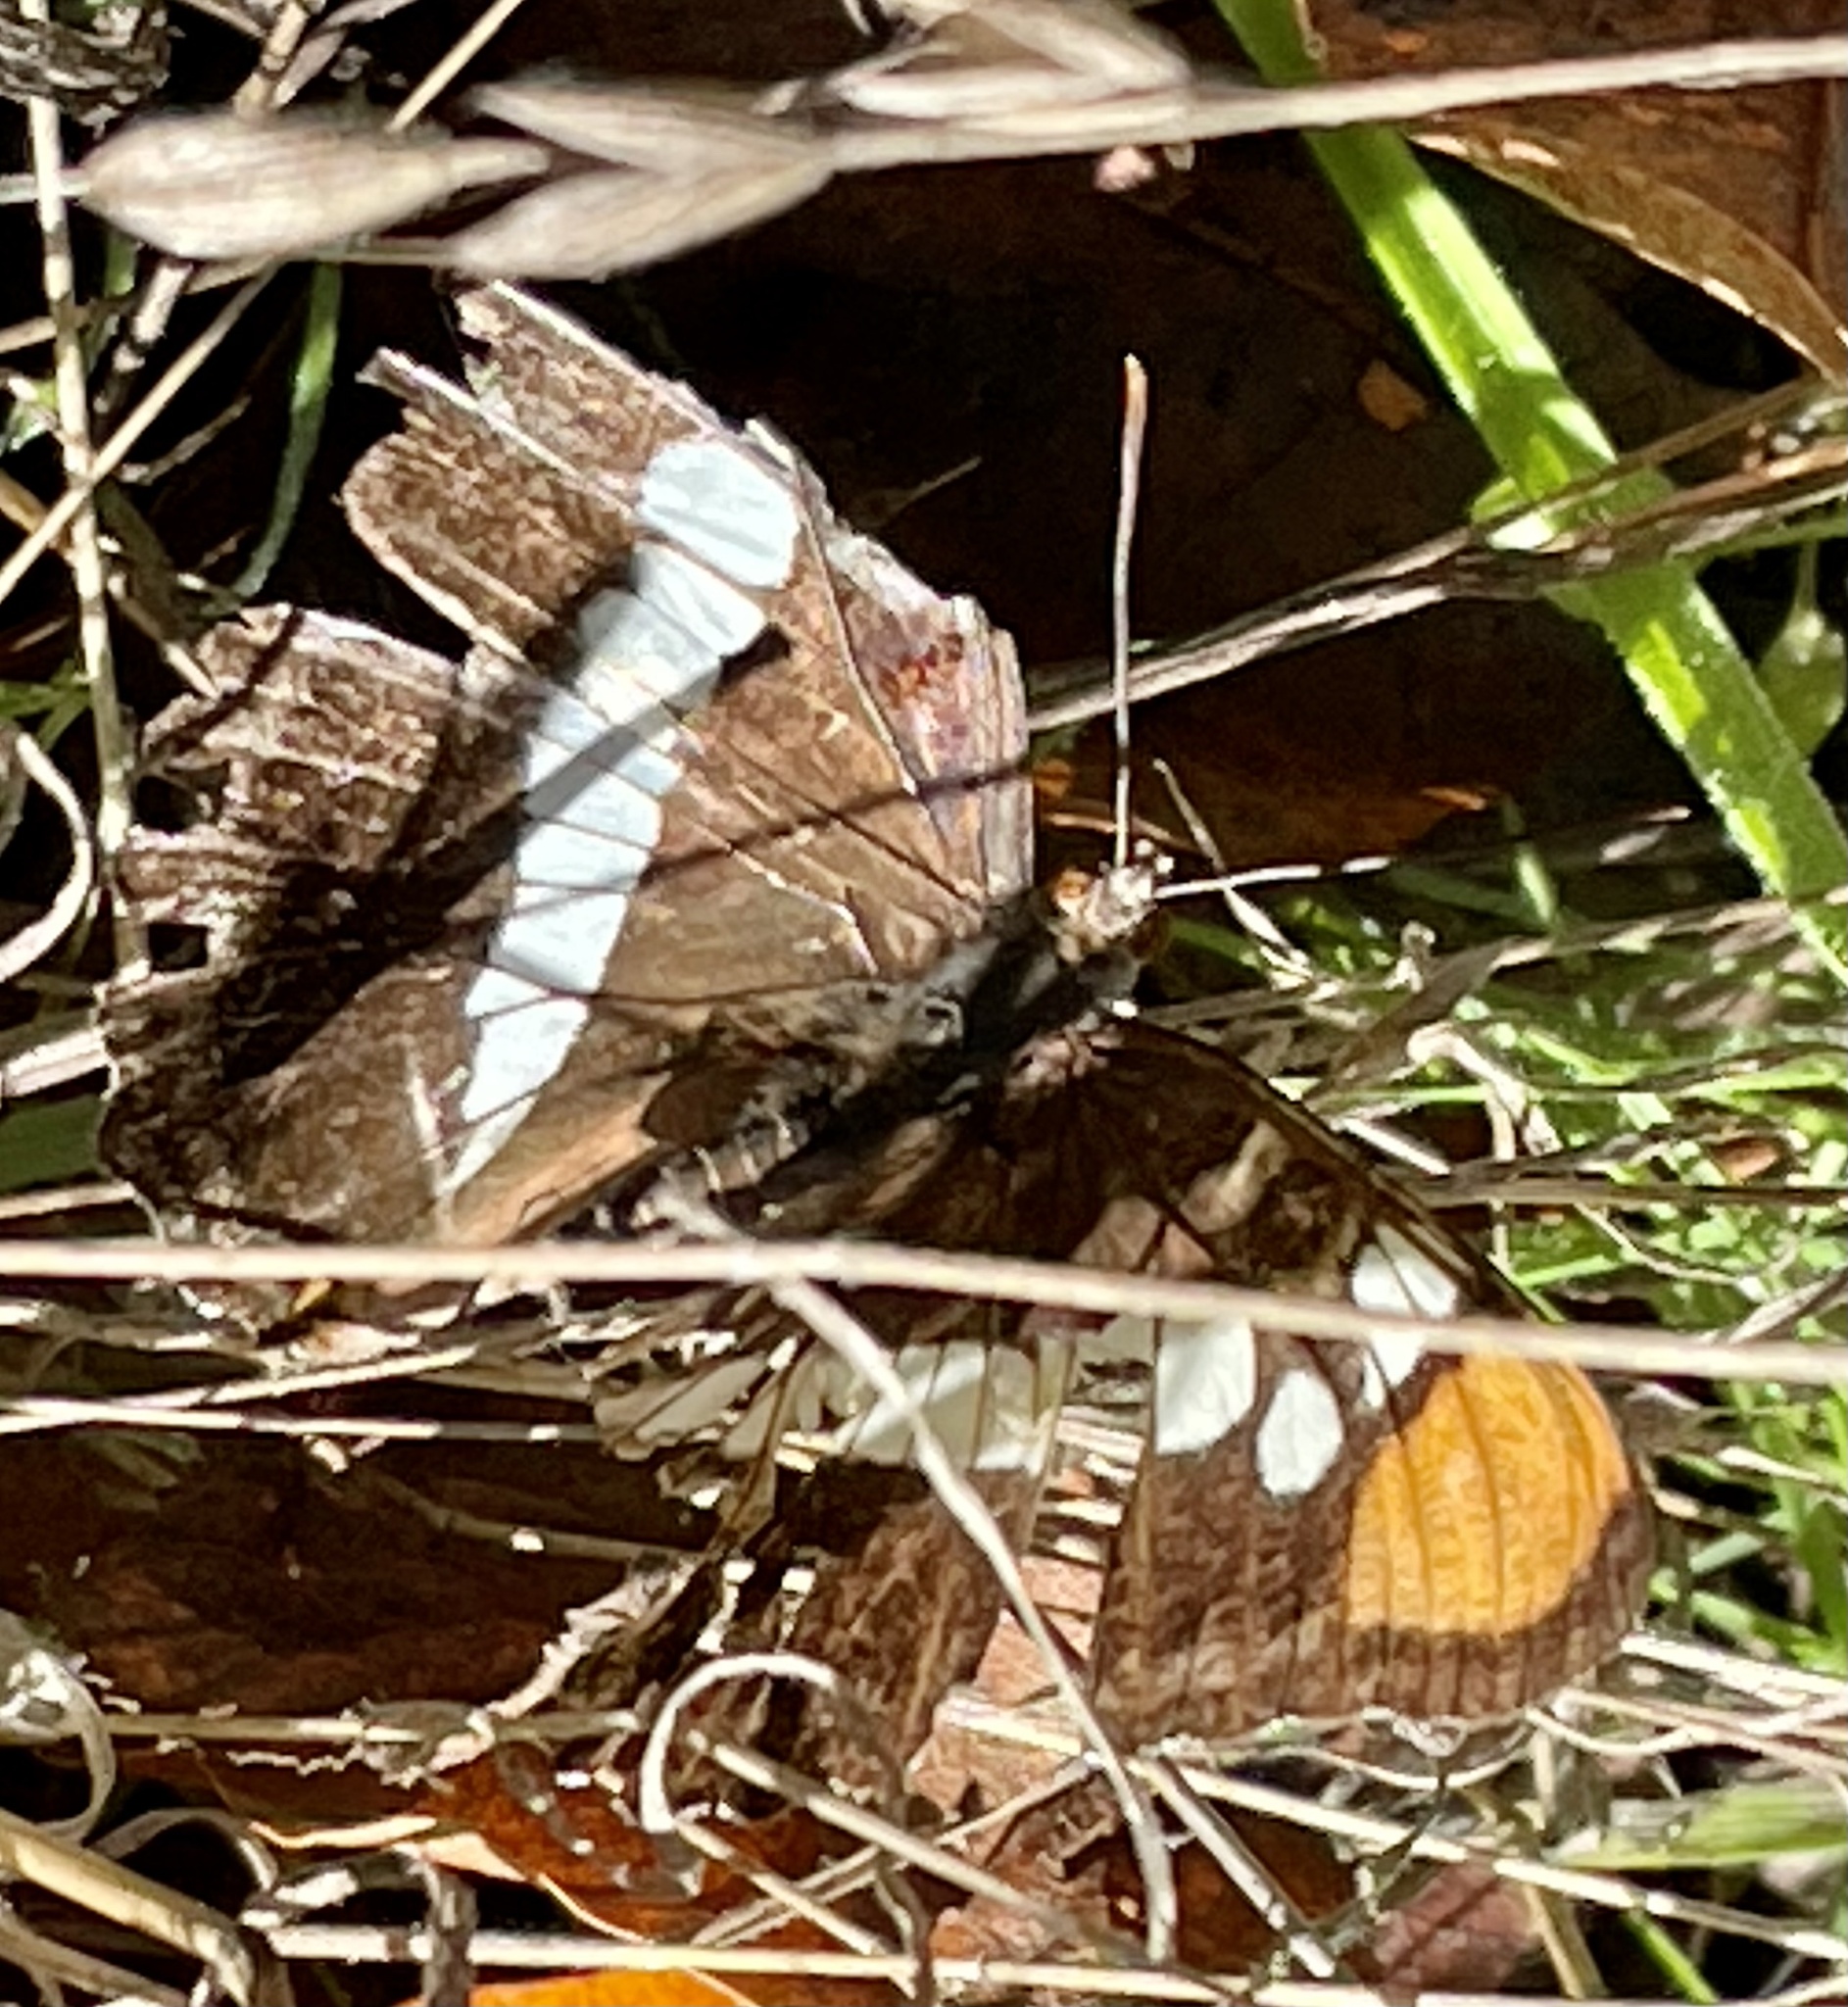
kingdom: Animalia
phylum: Arthropoda
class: Insecta
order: Lepidoptera
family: Nymphalidae
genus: Limenitis
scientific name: Limenitis bredowii
